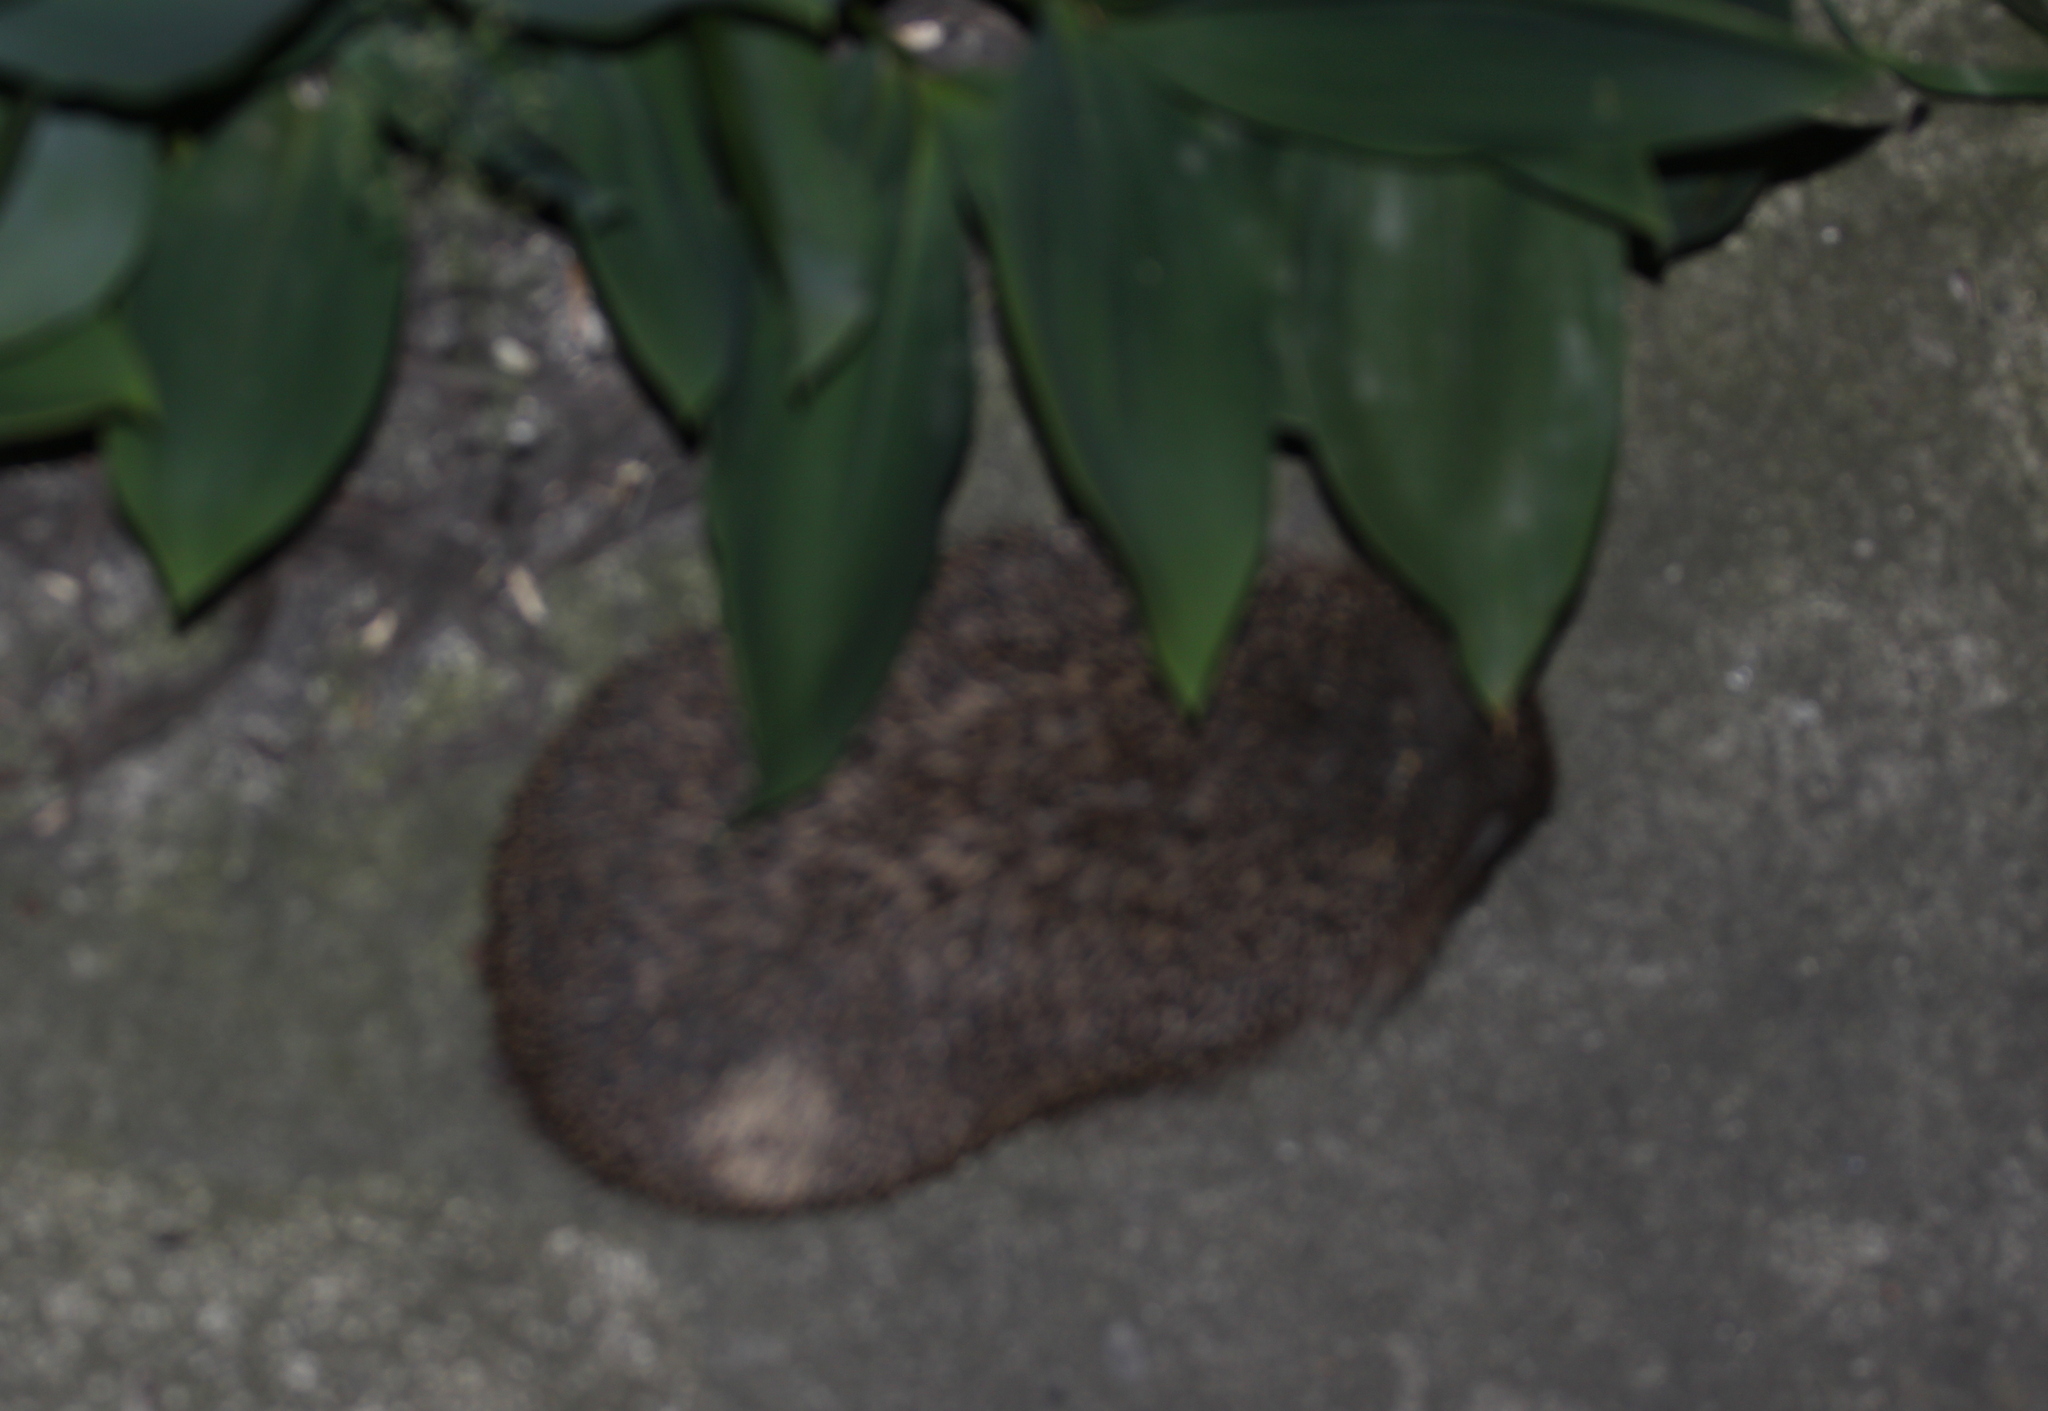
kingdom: Animalia
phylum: Chordata
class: Mammalia
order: Erinaceomorpha
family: Erinaceidae
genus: Erinaceus
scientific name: Erinaceus
